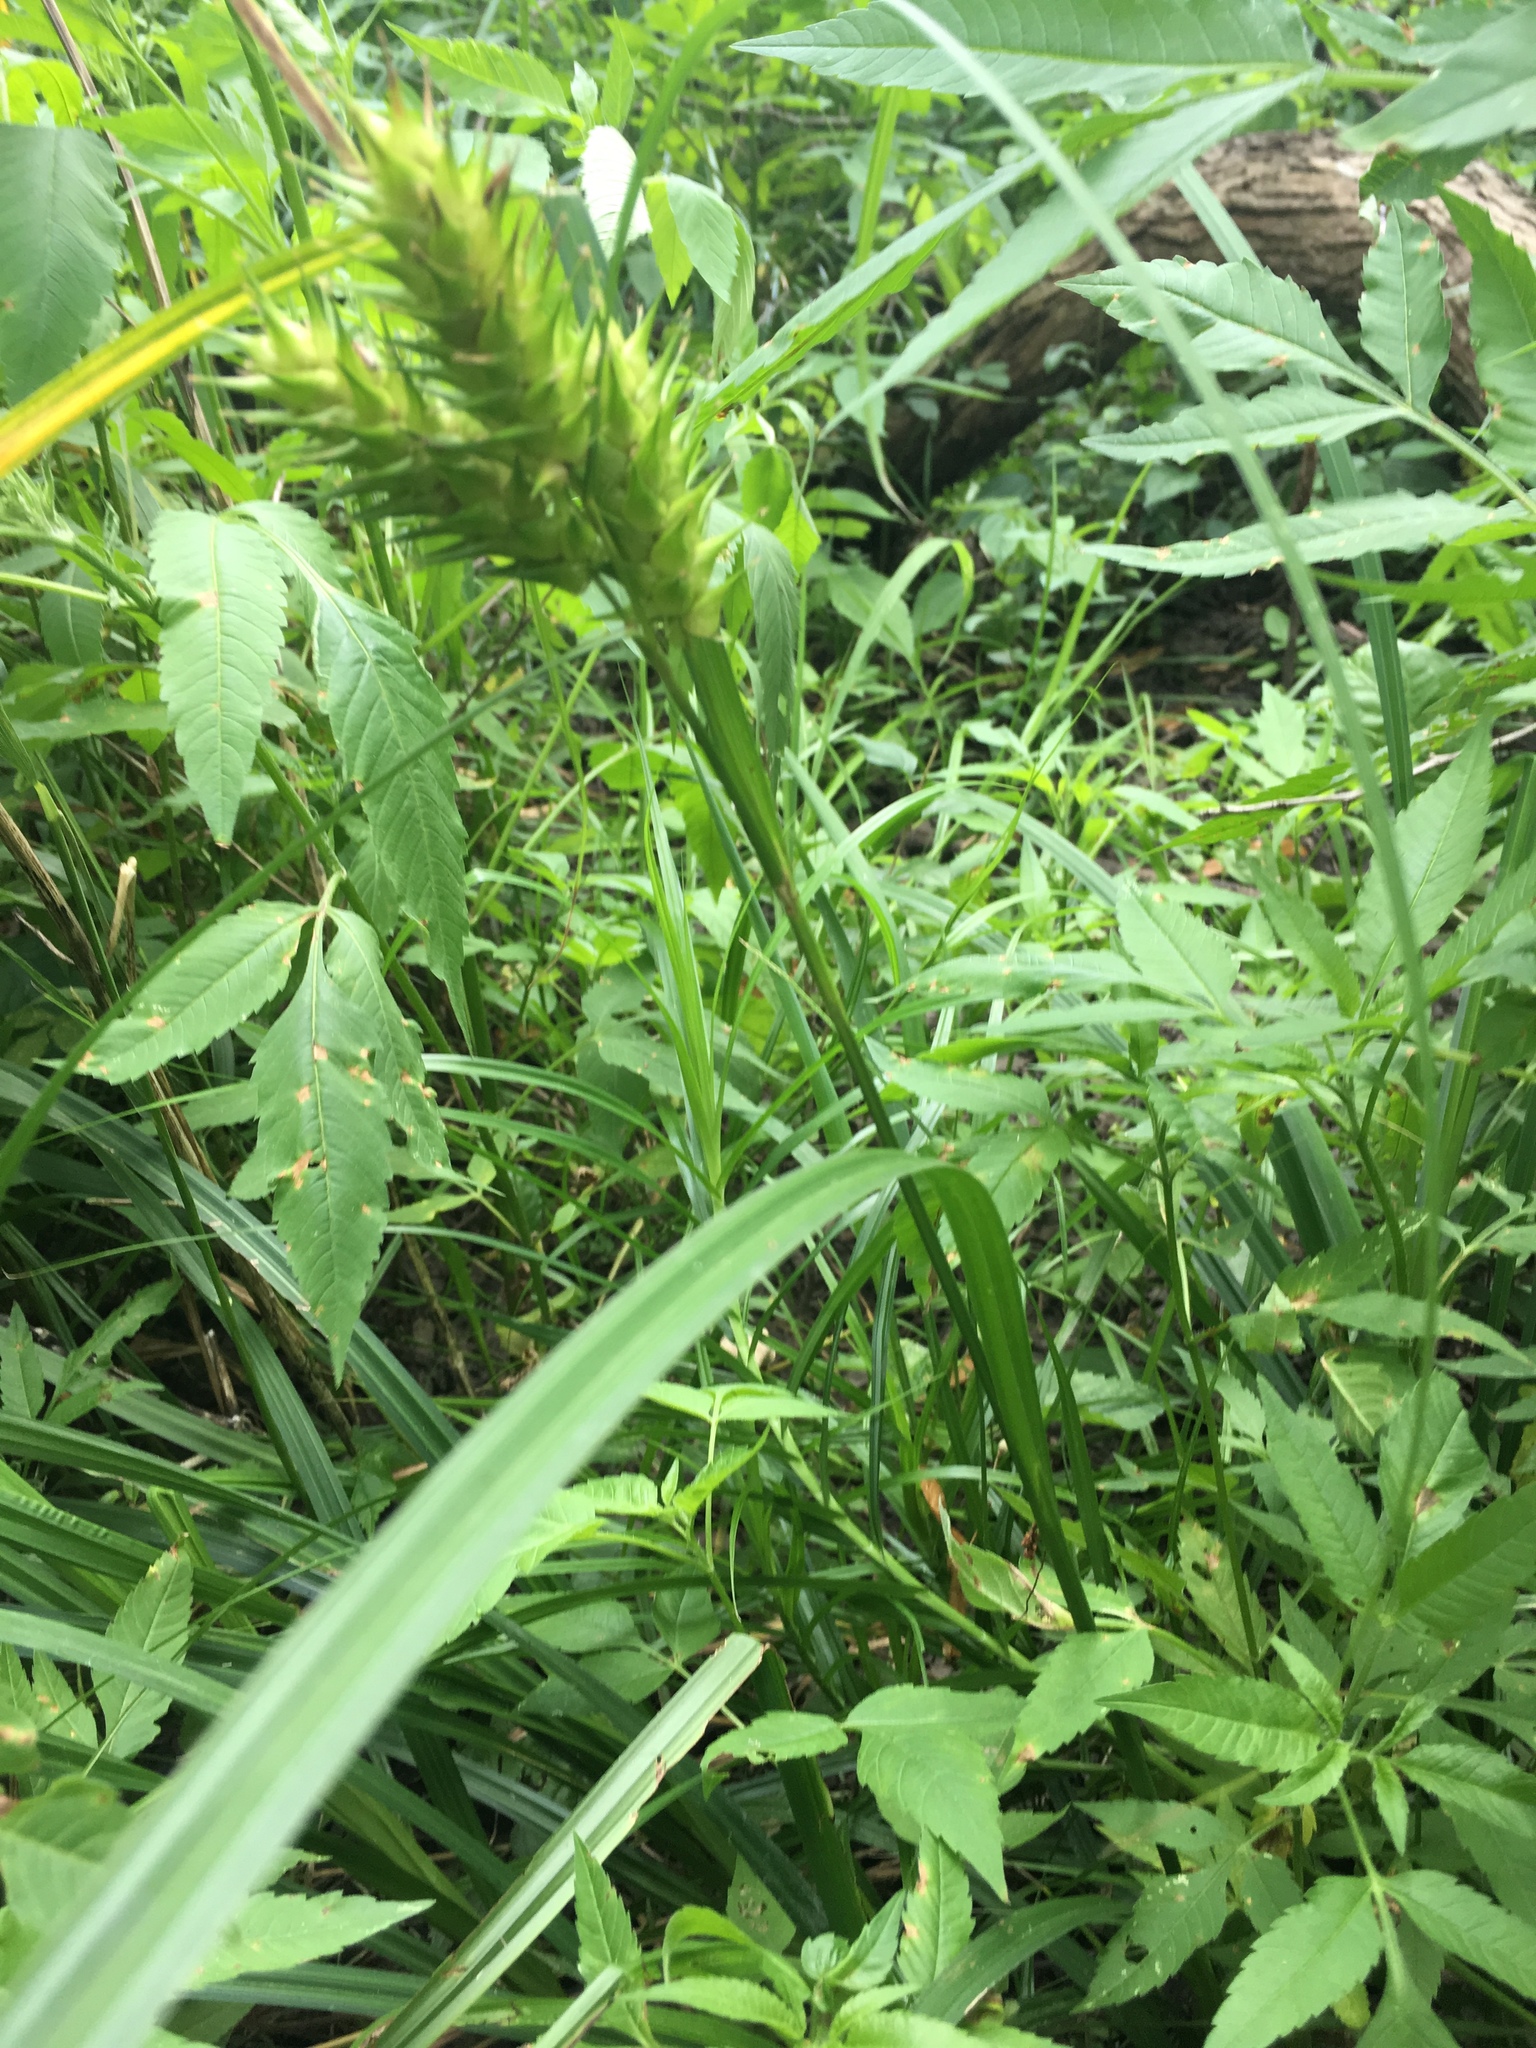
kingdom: Plantae
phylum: Tracheophyta
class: Liliopsida
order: Poales
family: Cyperaceae
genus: Carex
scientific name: Carex lupulina
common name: Hop sedge
